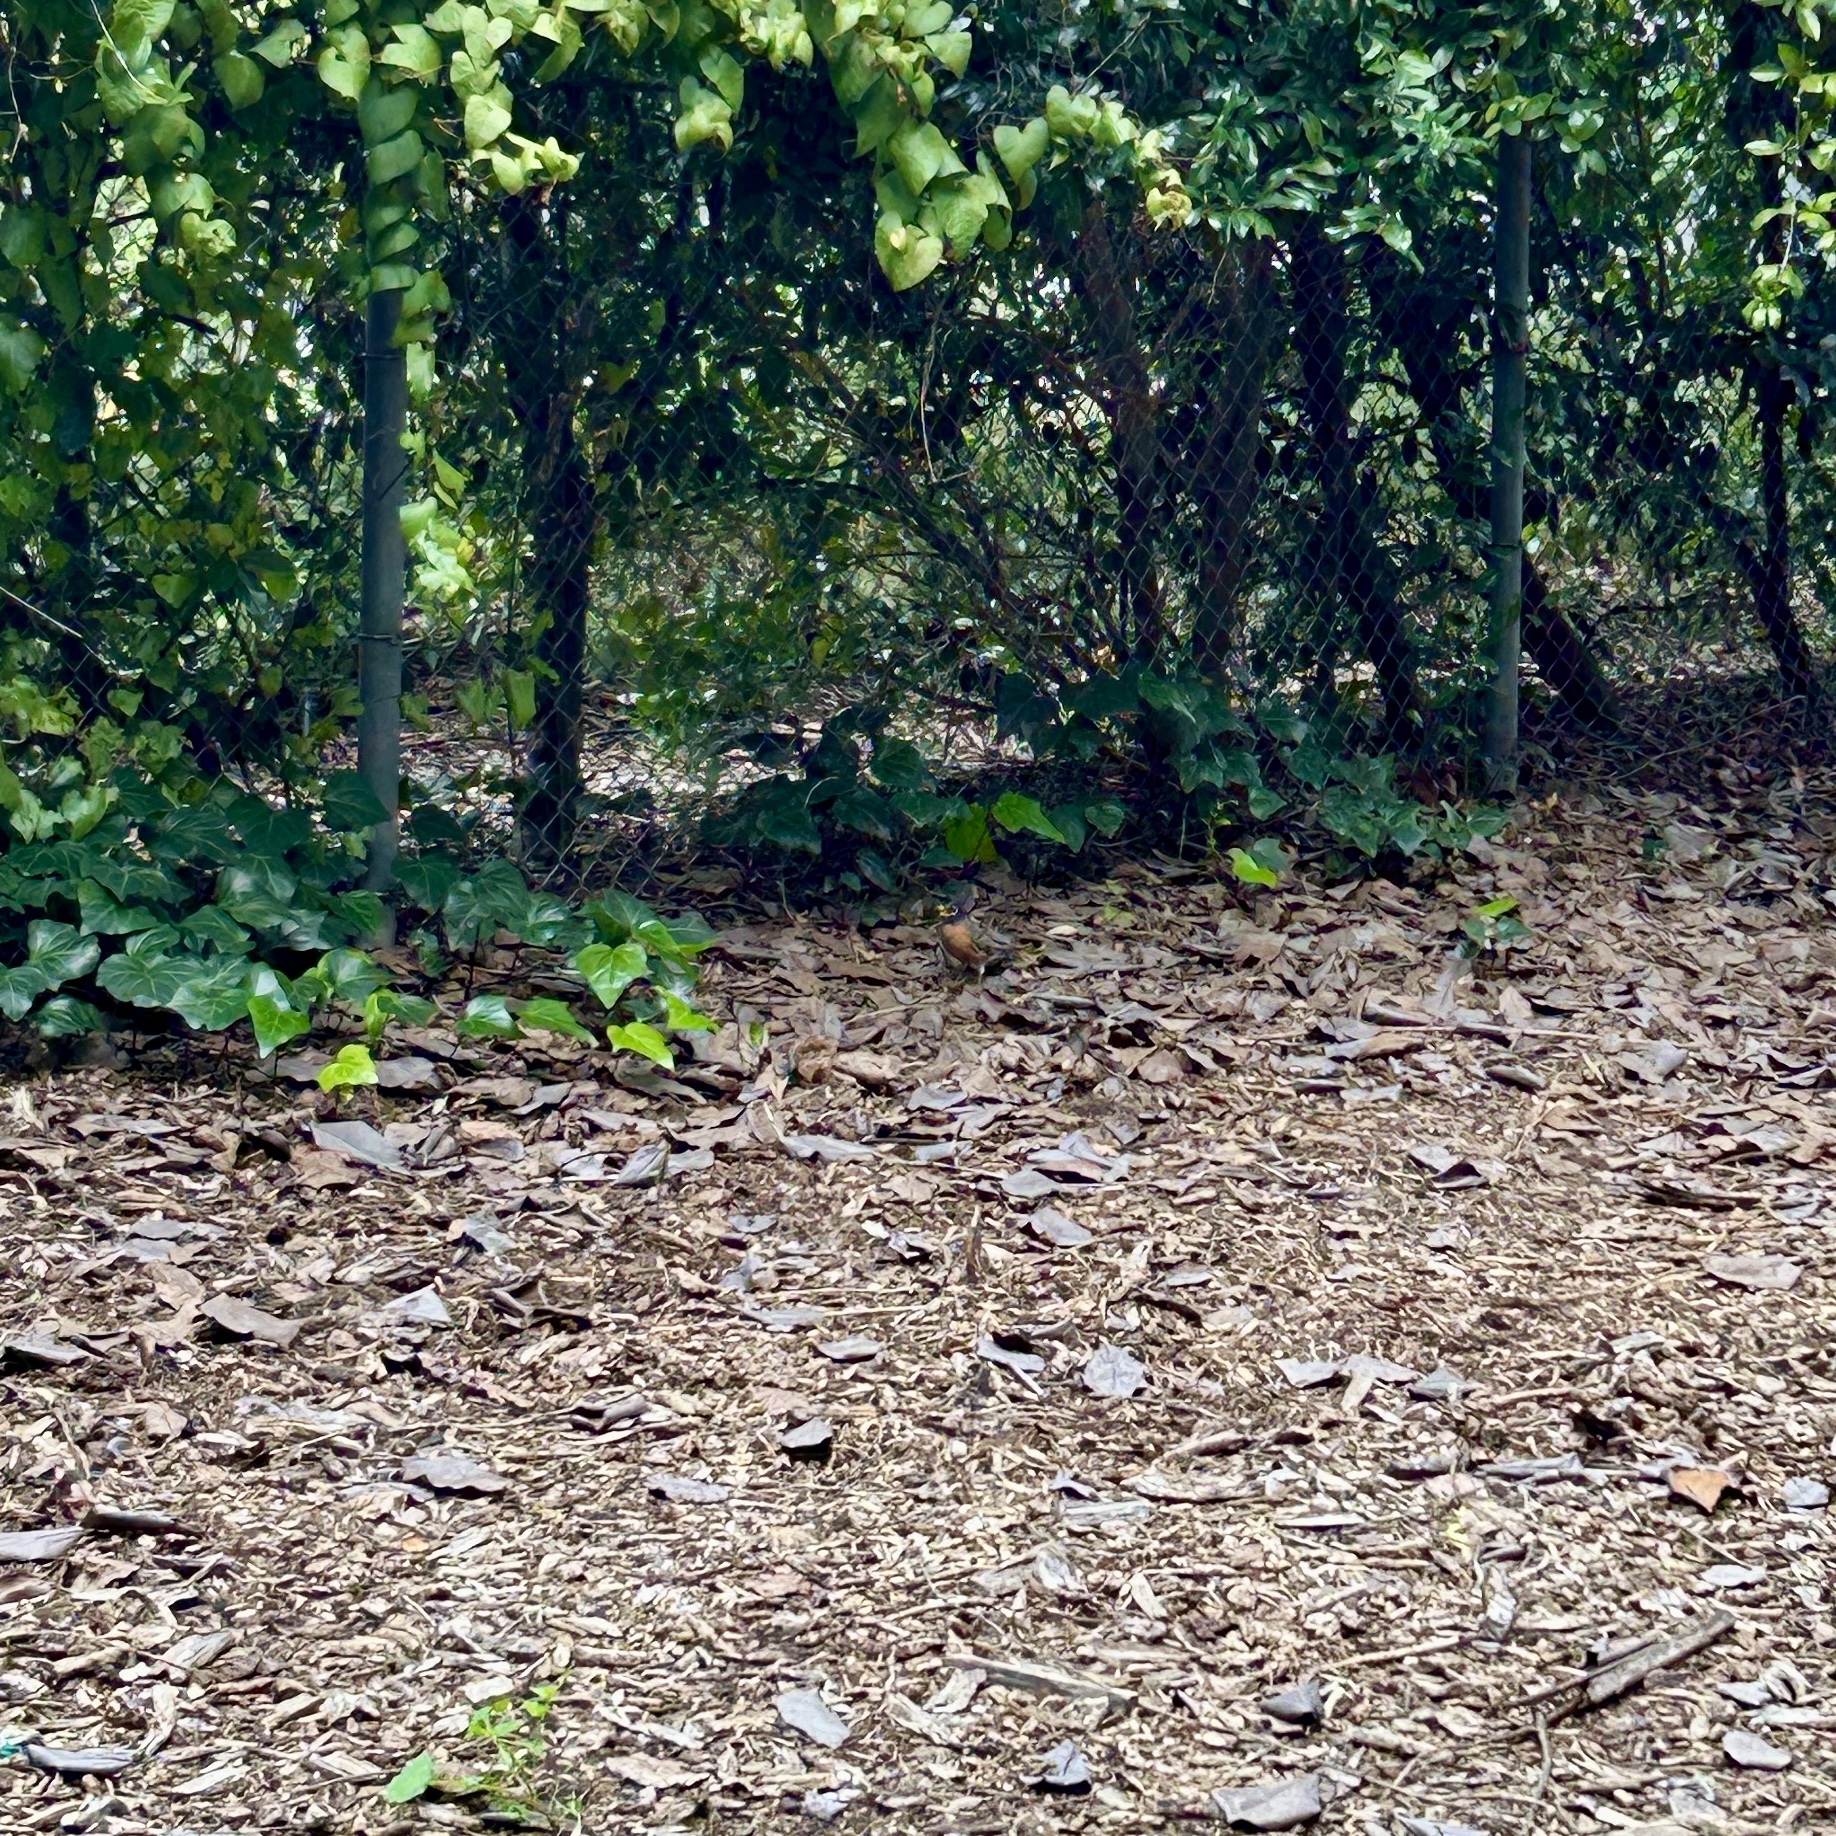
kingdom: Animalia
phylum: Chordata
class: Aves
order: Passeriformes
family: Turdidae
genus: Turdus
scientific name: Turdus migratorius
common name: American robin
